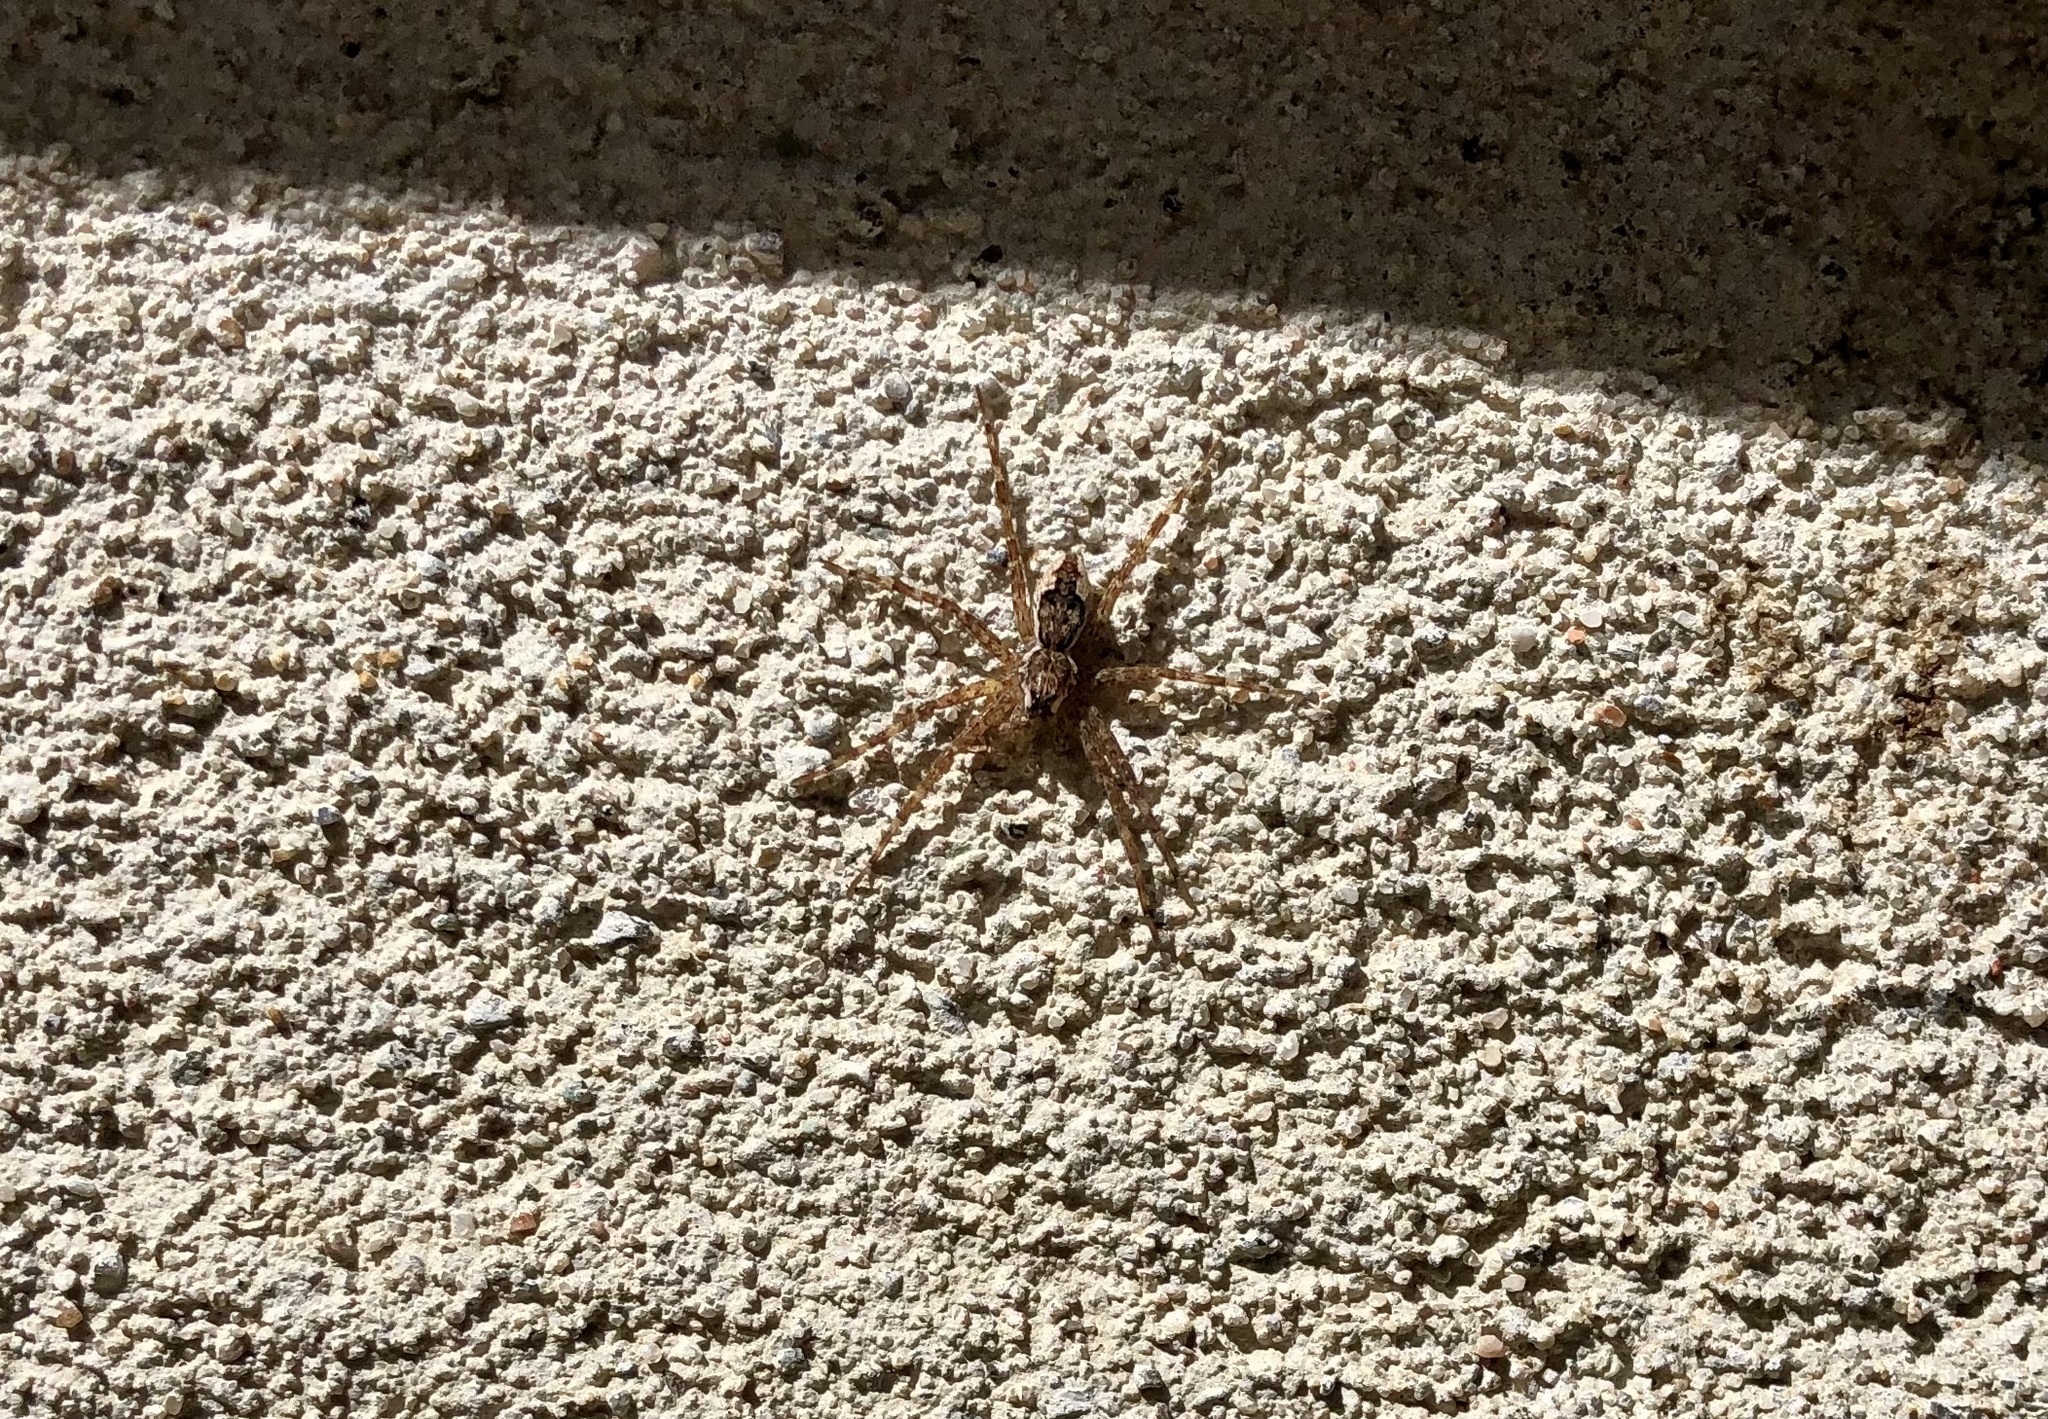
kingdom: Animalia
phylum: Arthropoda
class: Arachnida
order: Araneae
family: Pisauridae
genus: Dolomedes
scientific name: Dolomedes tenebrosus
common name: Dark fishing spider
